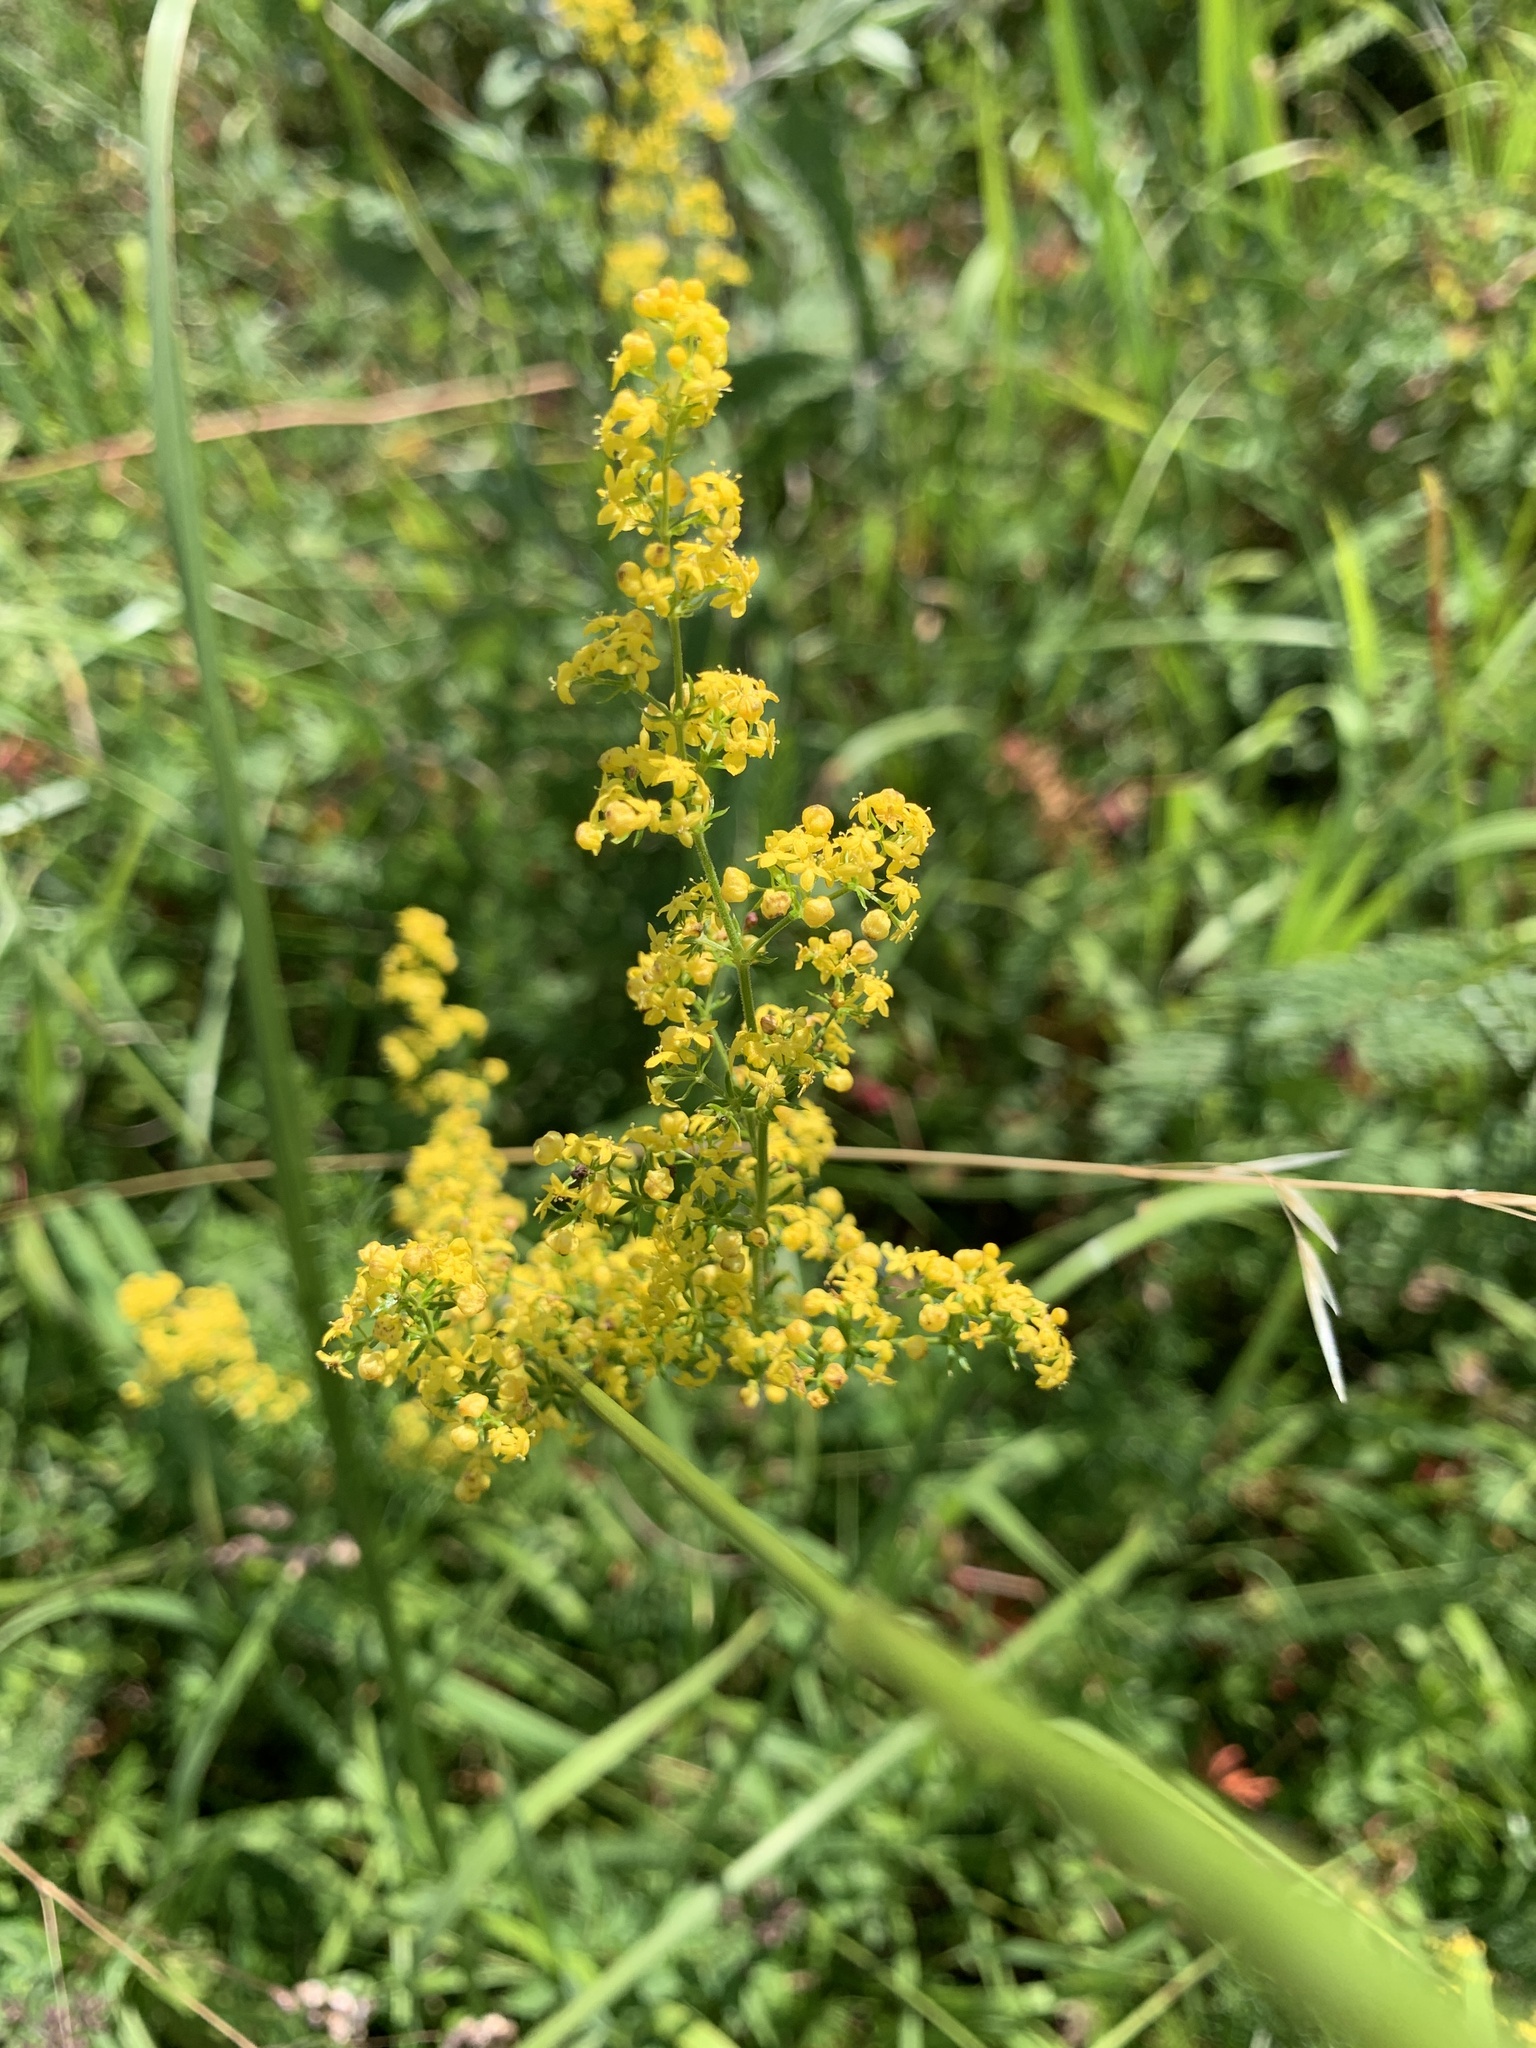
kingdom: Plantae
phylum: Tracheophyta
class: Magnoliopsida
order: Gentianales
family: Rubiaceae
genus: Galium
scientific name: Galium verum
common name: Lady's bedstraw
